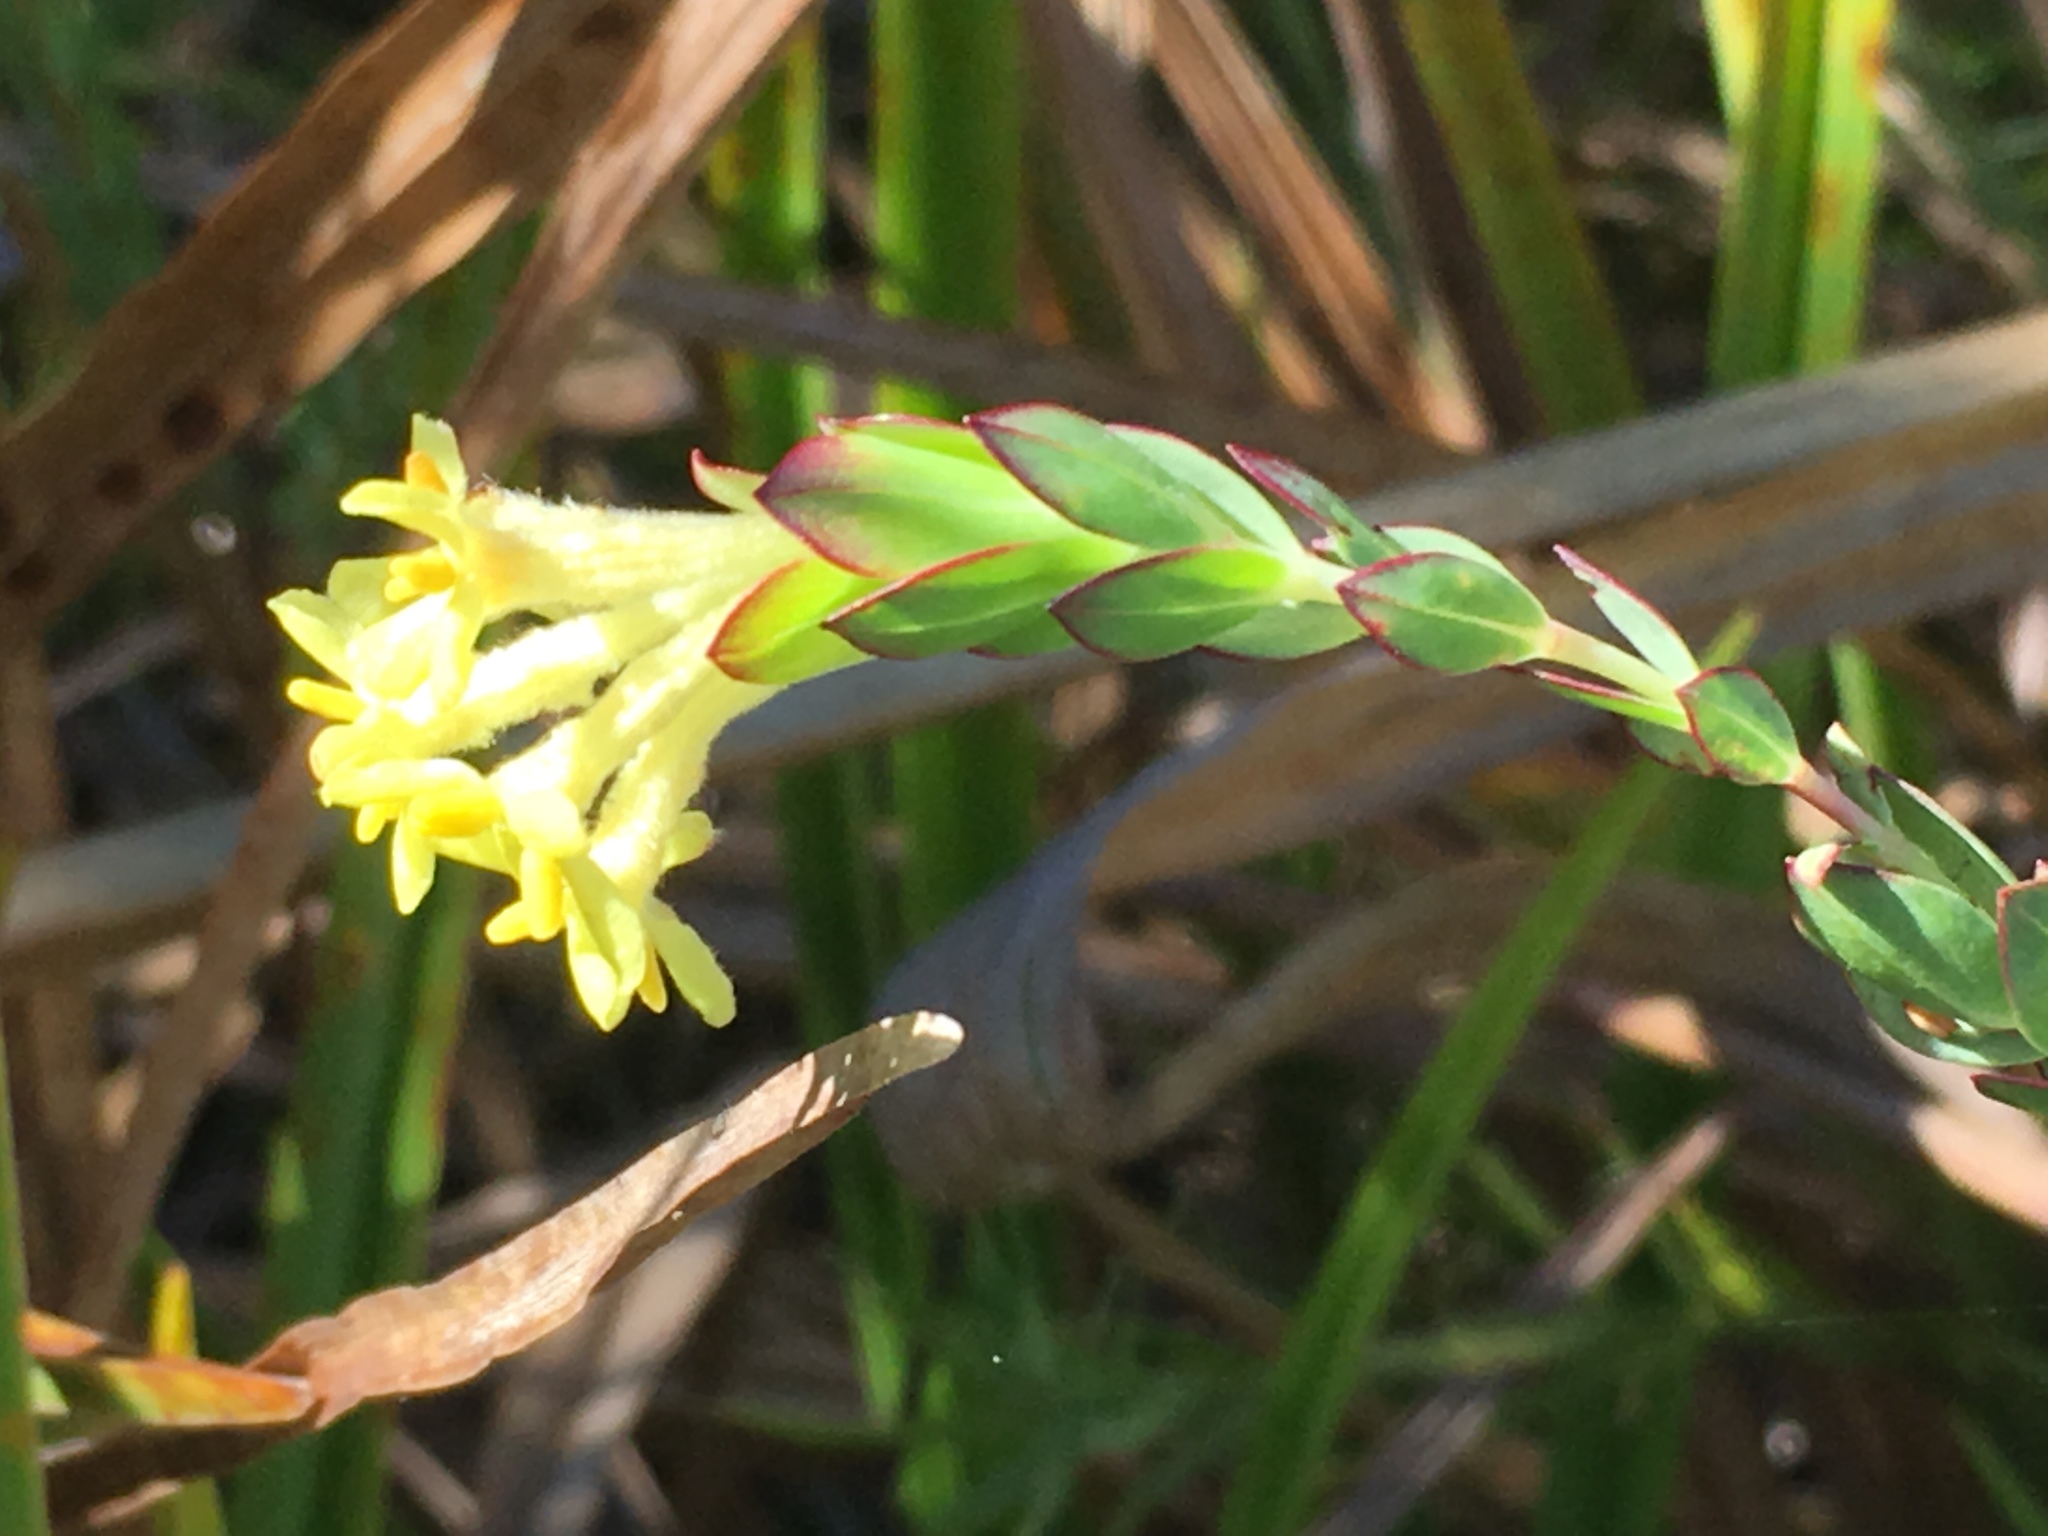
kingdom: Plantae
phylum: Tracheophyta
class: Magnoliopsida
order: Malvales
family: Thymelaeaceae
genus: Gnidia
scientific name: Gnidia oppositifolia
